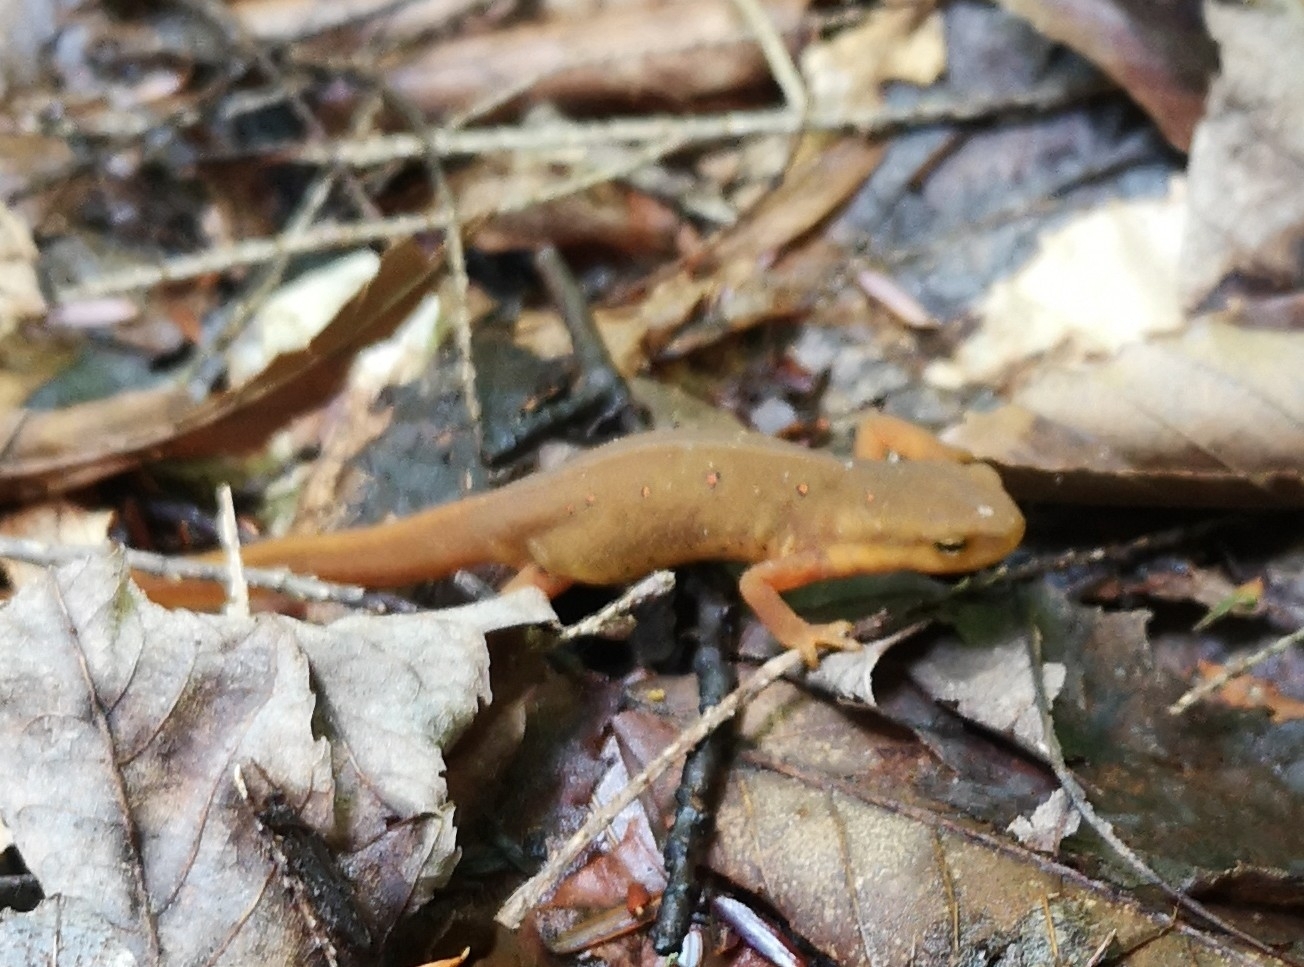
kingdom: Animalia
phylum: Chordata
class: Amphibia
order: Caudata
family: Salamandridae
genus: Notophthalmus
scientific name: Notophthalmus viridescens
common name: Eastern newt
